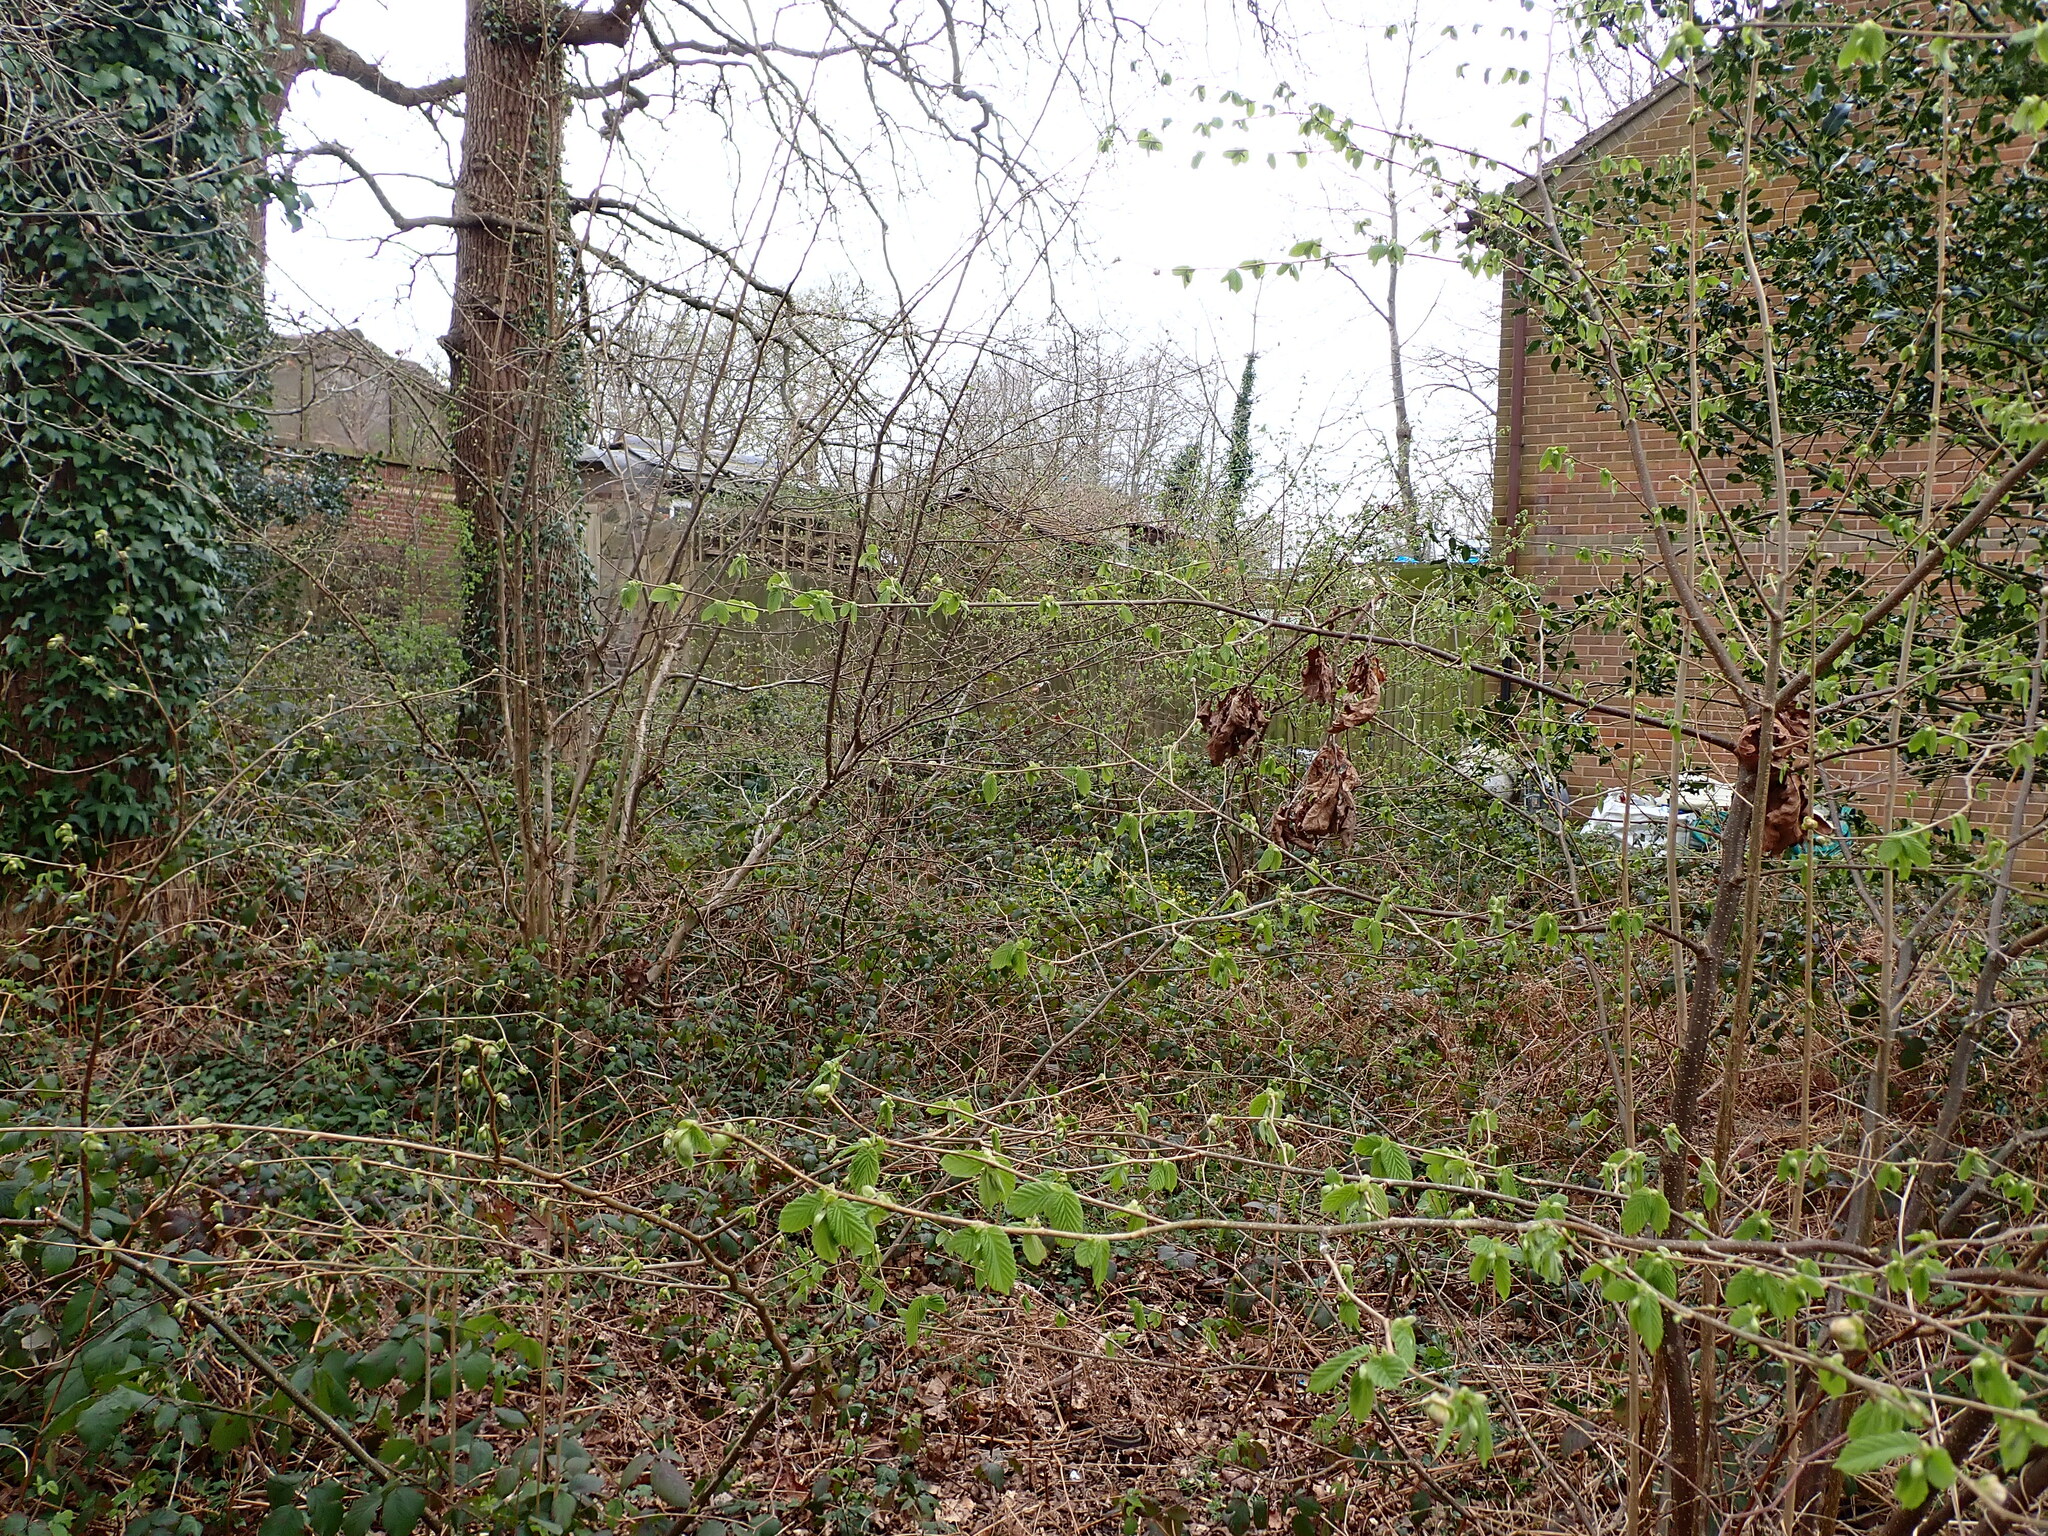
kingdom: Plantae
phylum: Tracheophyta
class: Magnoliopsida
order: Fagales
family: Betulaceae
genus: Corylus
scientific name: Corylus avellana
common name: European hazel
